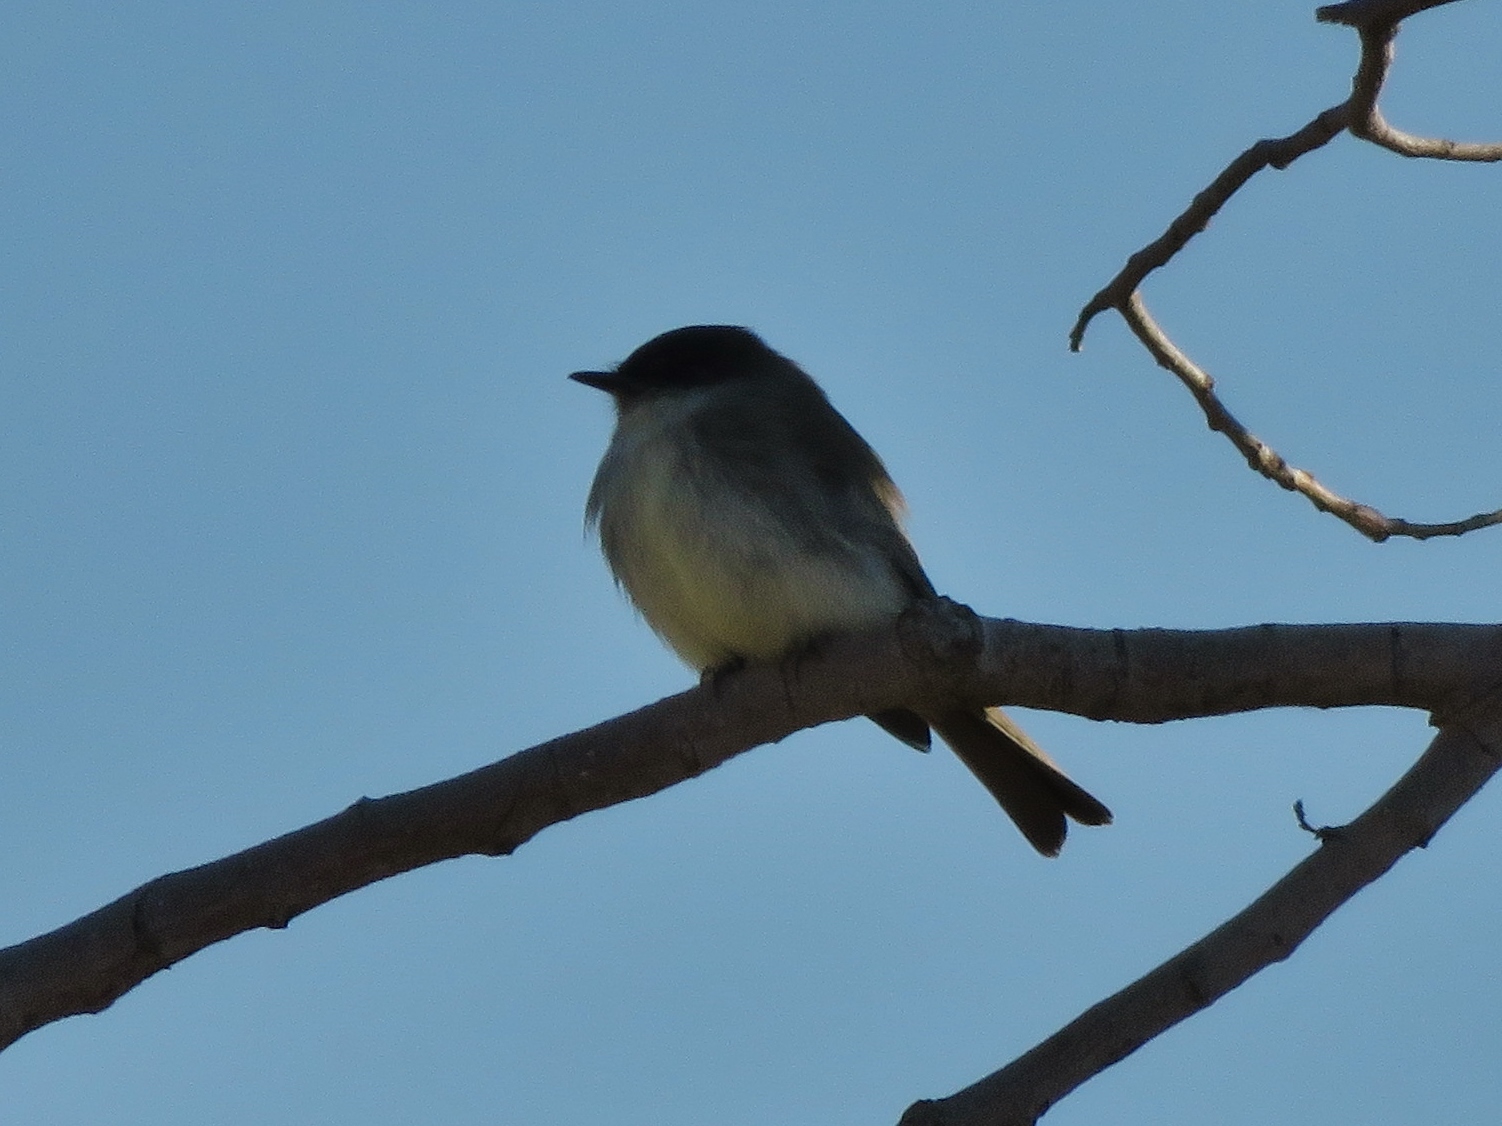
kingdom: Animalia
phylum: Chordata
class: Aves
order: Passeriformes
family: Tyrannidae
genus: Sayornis
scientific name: Sayornis phoebe
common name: Eastern phoebe
